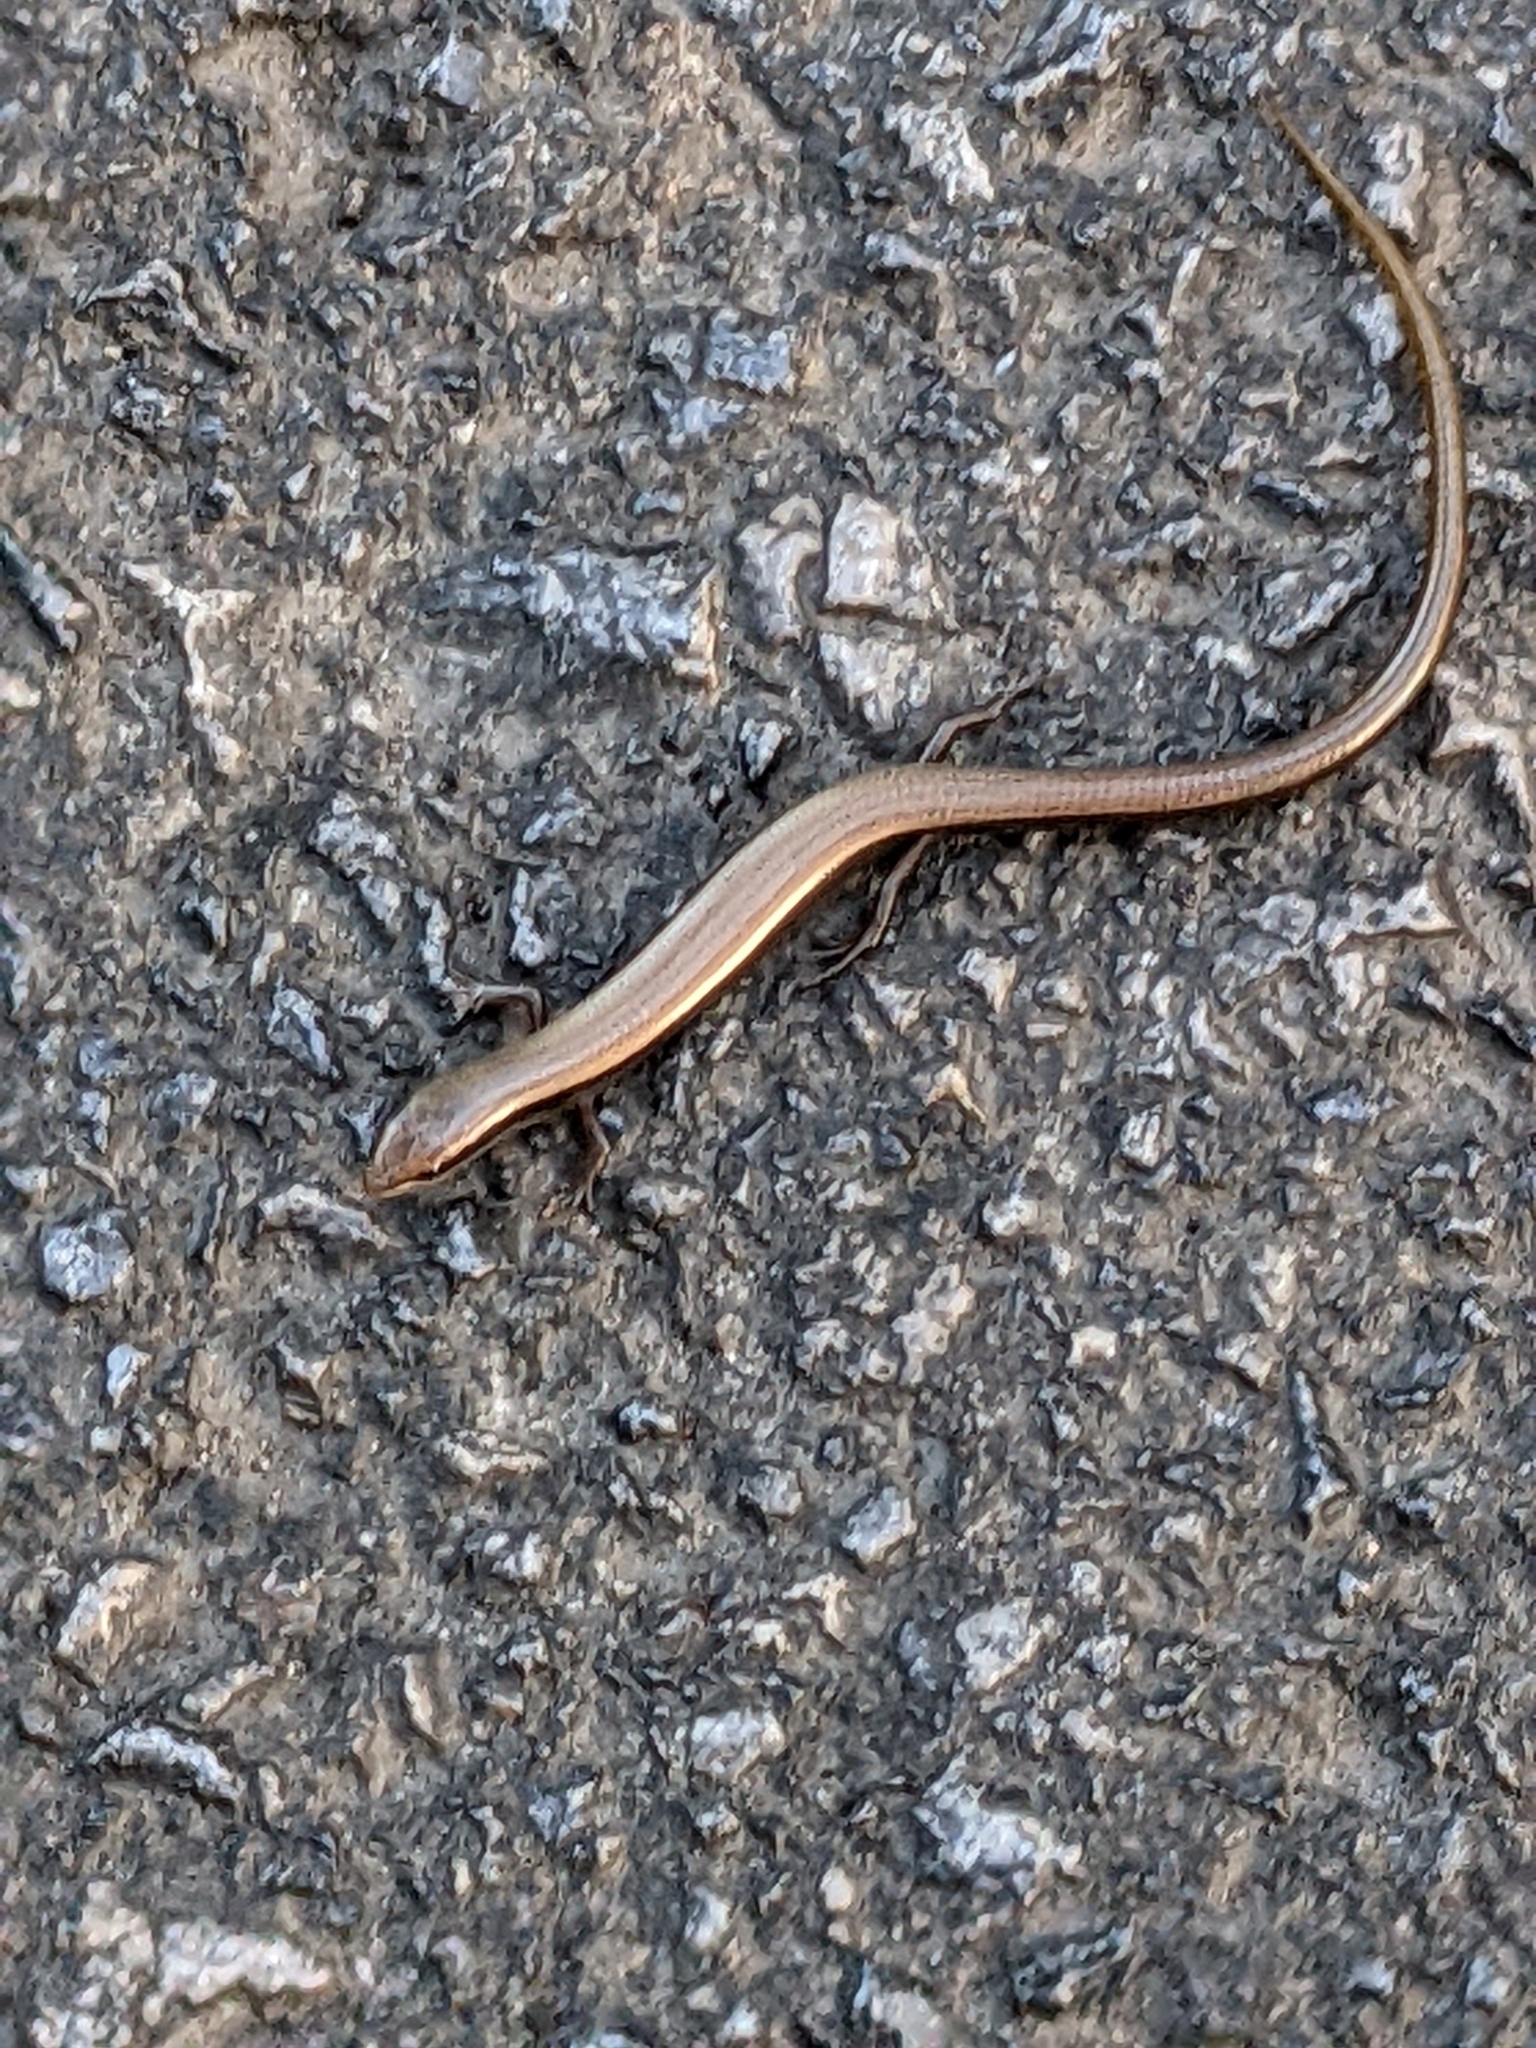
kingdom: Animalia
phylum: Chordata
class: Squamata
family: Scincidae
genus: Ablepharus
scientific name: Ablepharus kitaibelii
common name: Juniper skink
